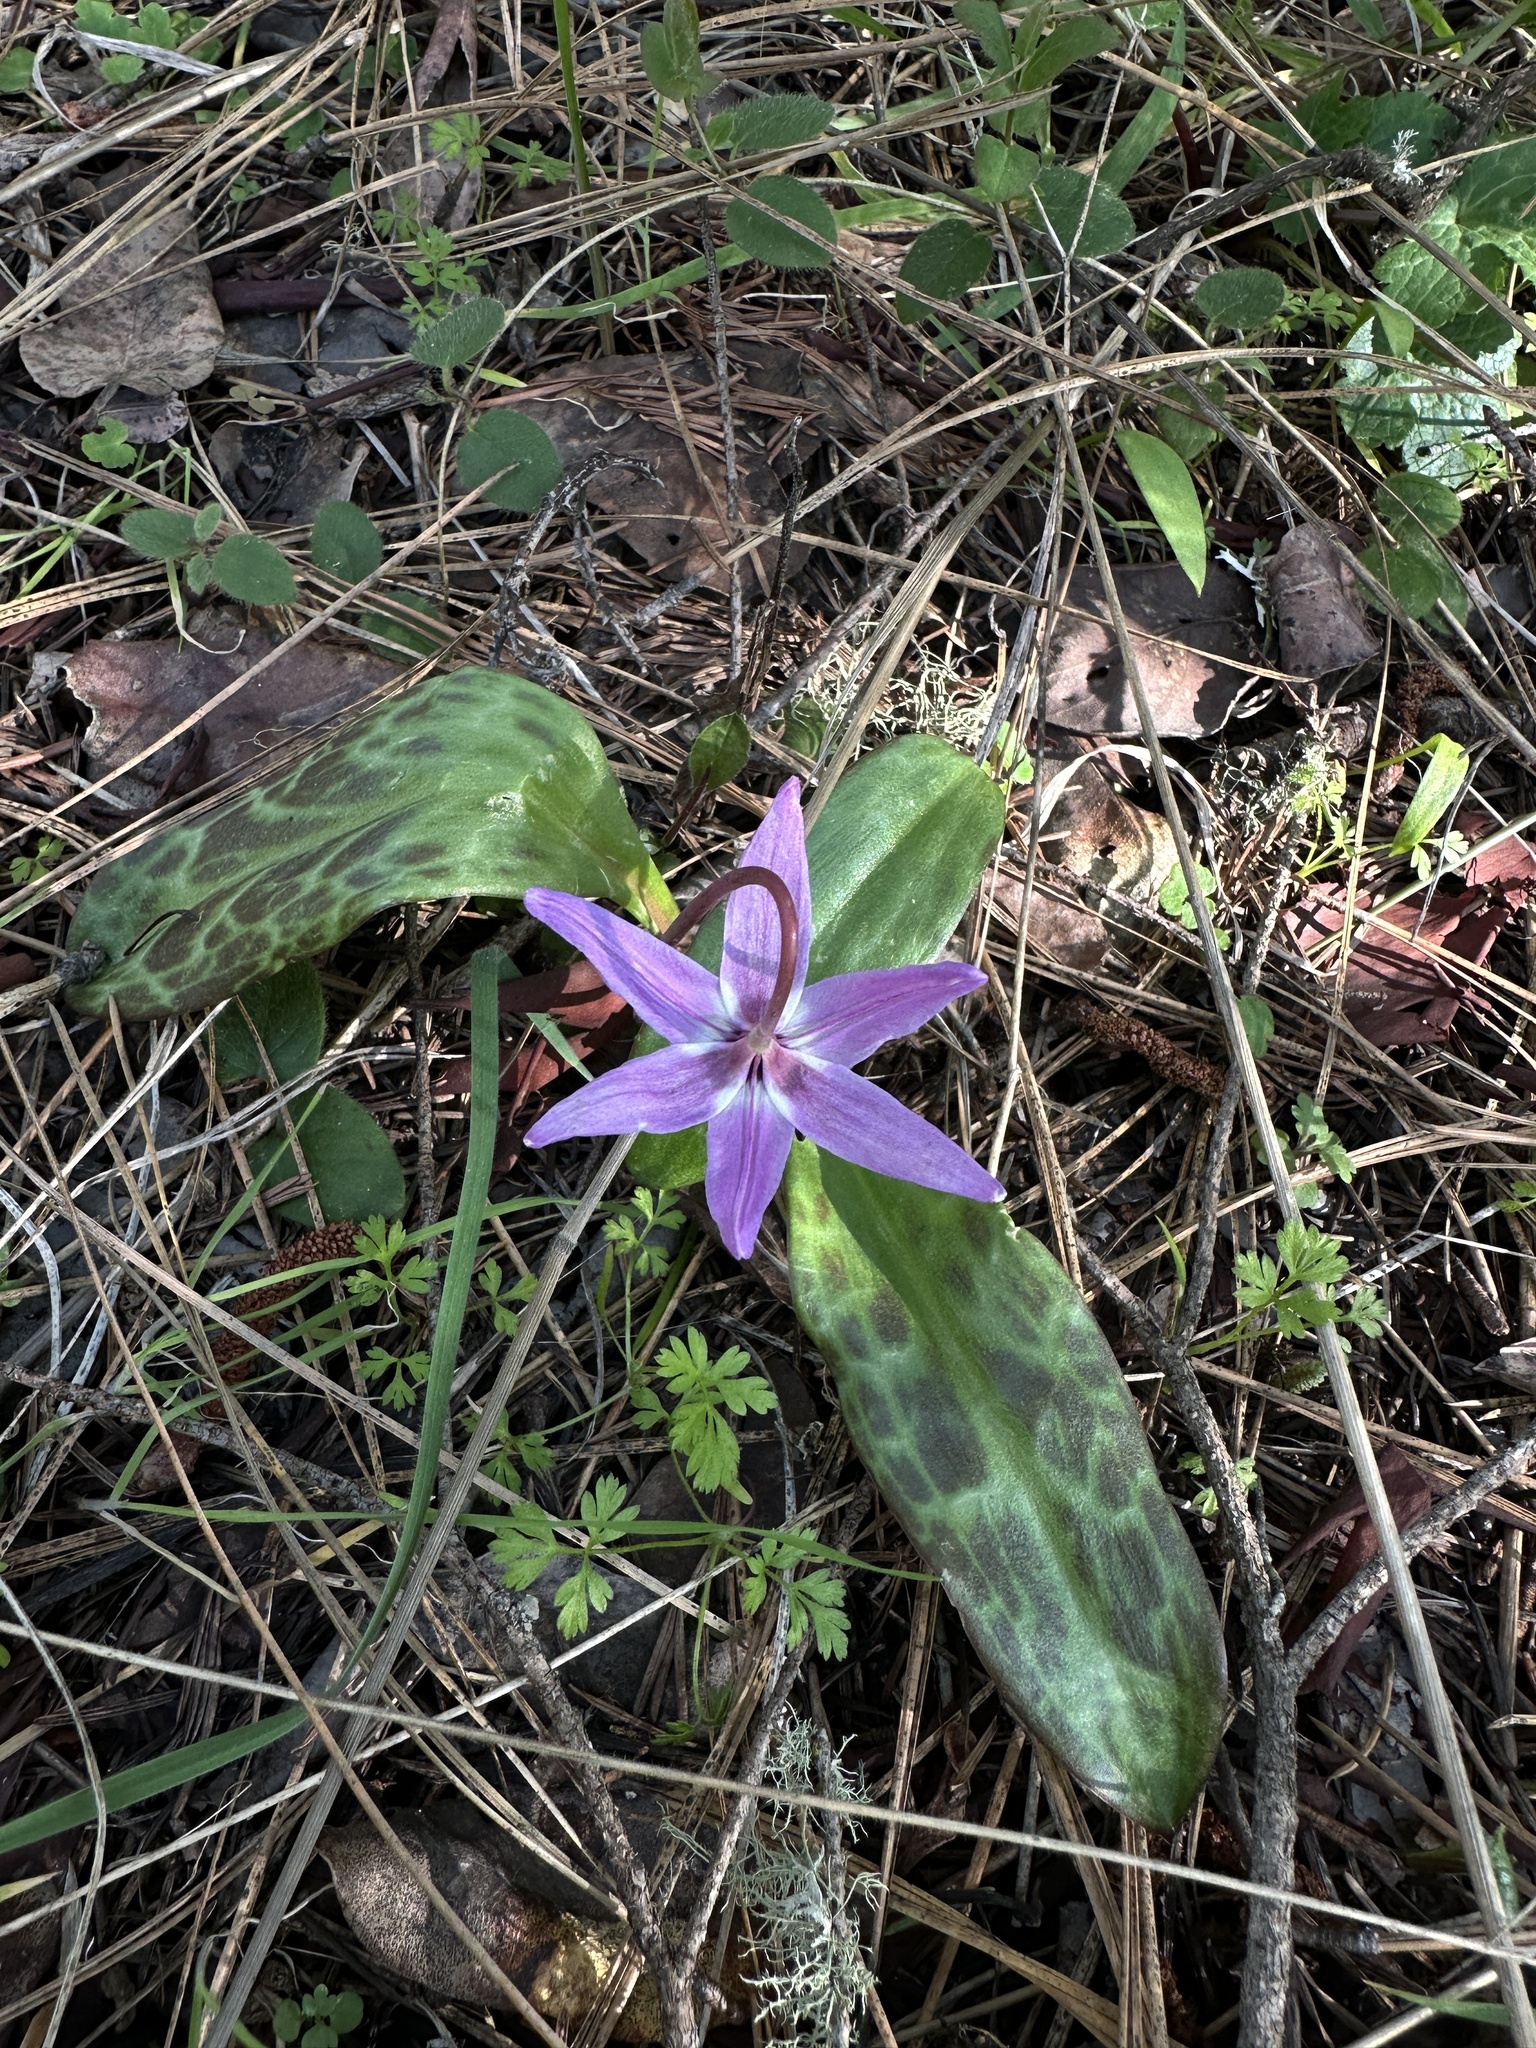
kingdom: Plantae
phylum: Tracheophyta
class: Liliopsida
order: Liliales
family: Liliaceae
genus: Erythronium
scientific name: Erythronium hendersonii
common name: Henderson's fawn-lily
